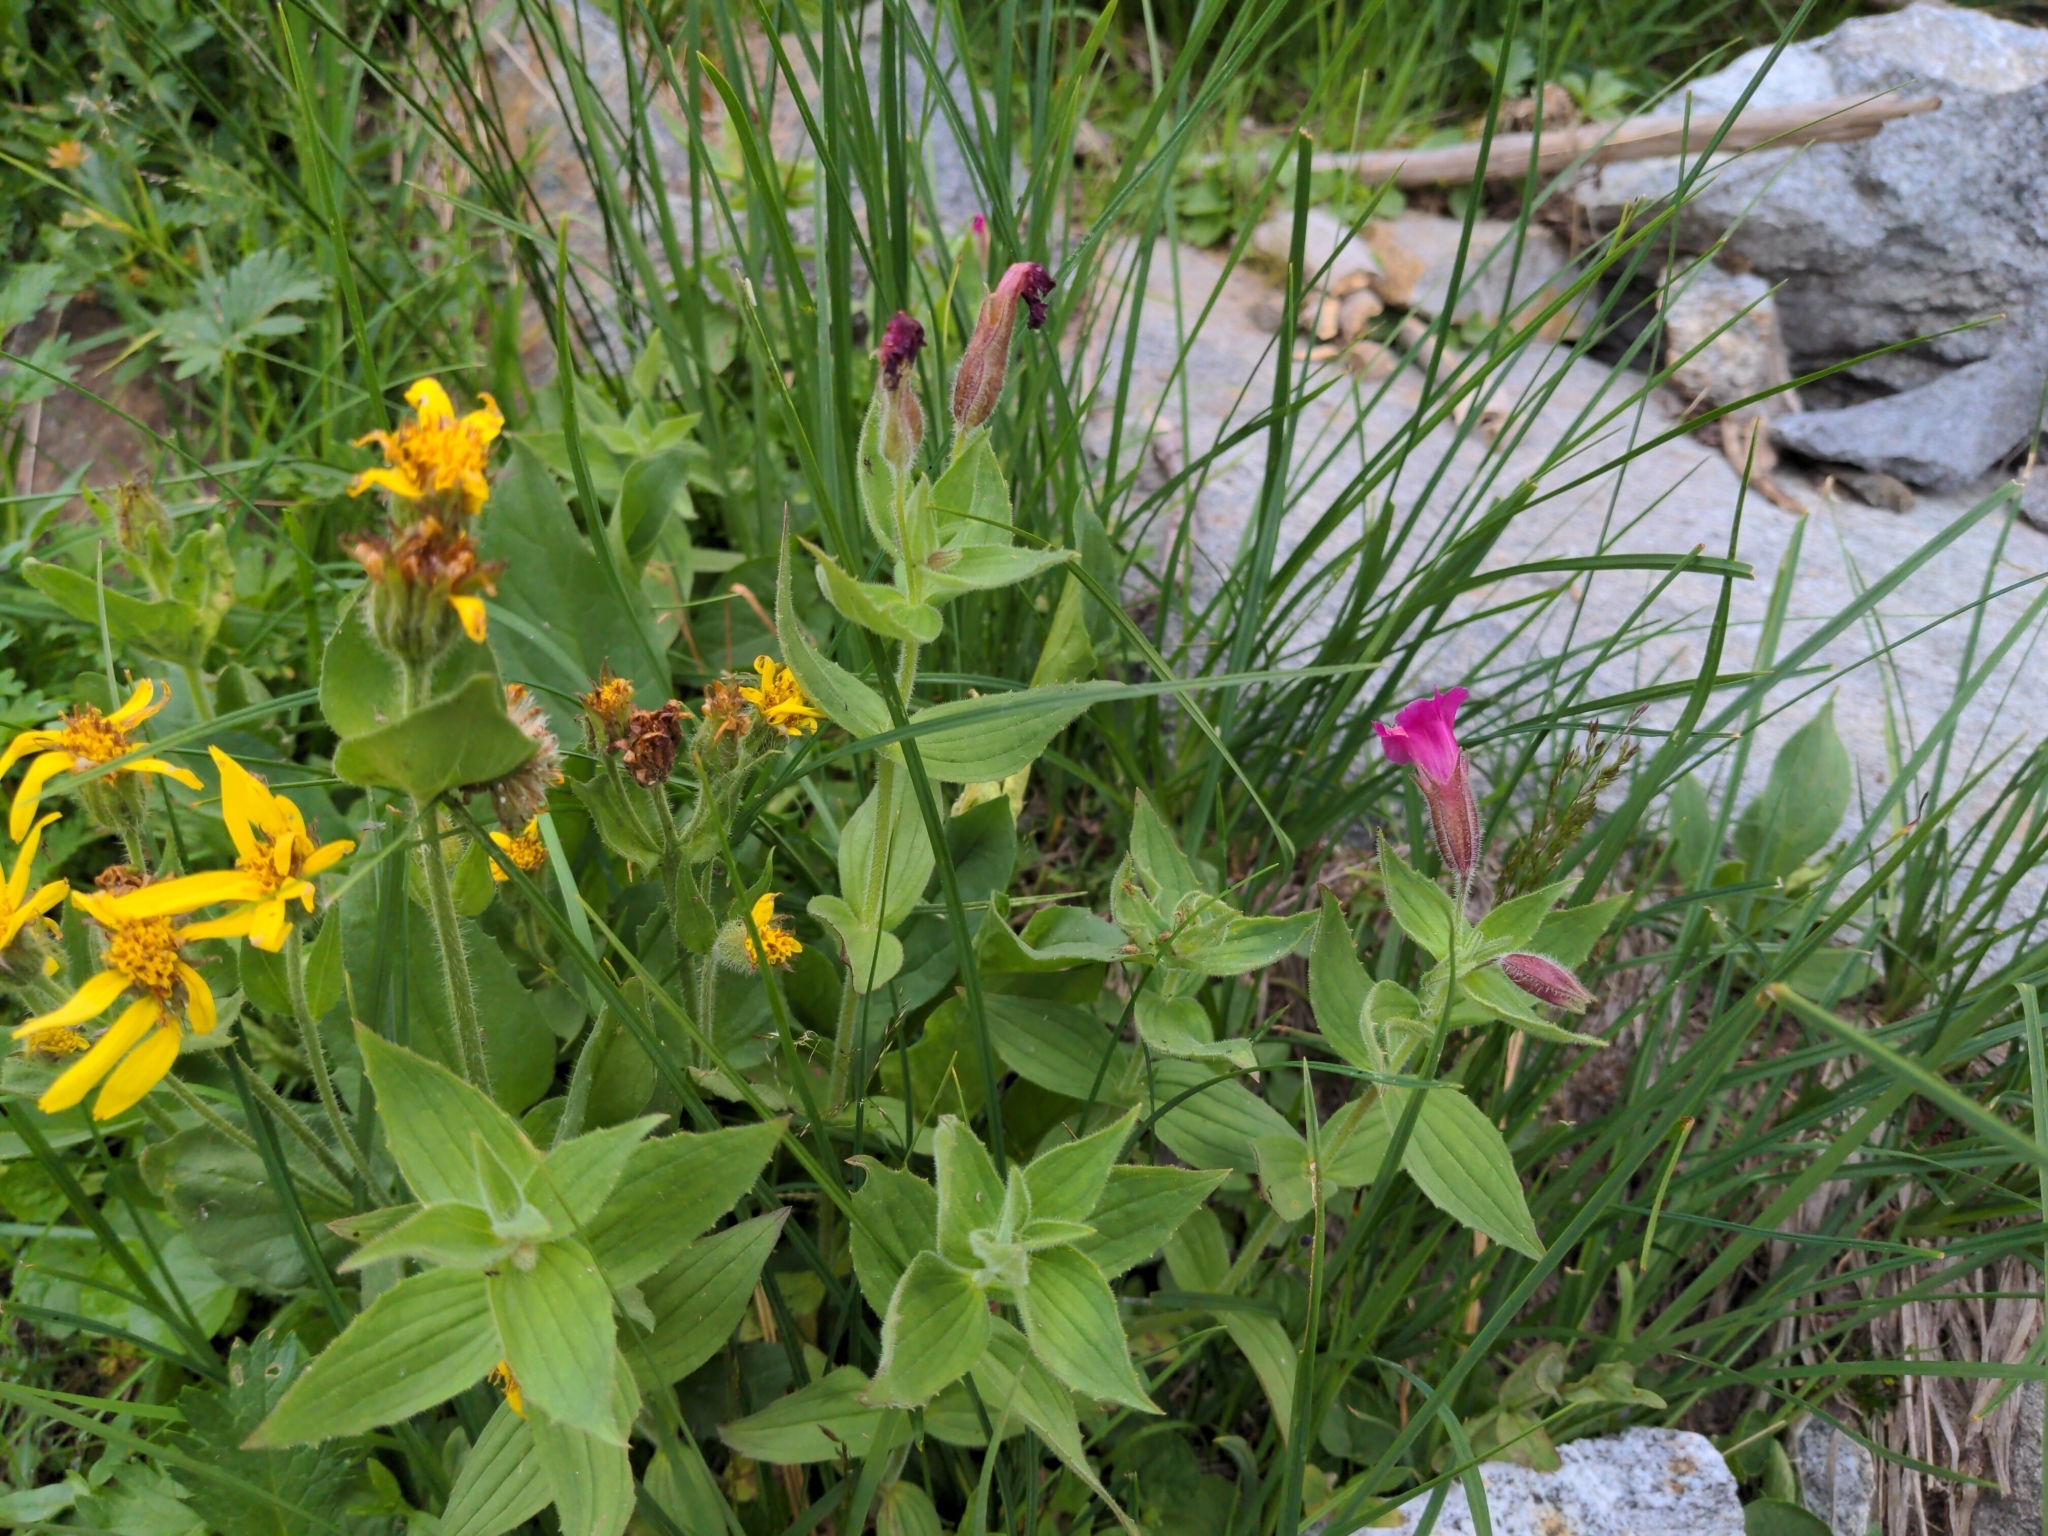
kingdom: Plantae
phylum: Tracheophyta
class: Magnoliopsida
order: Lamiales
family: Phrymaceae
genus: Erythranthe
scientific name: Erythranthe lewisii
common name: Lewis's monkey-flower
